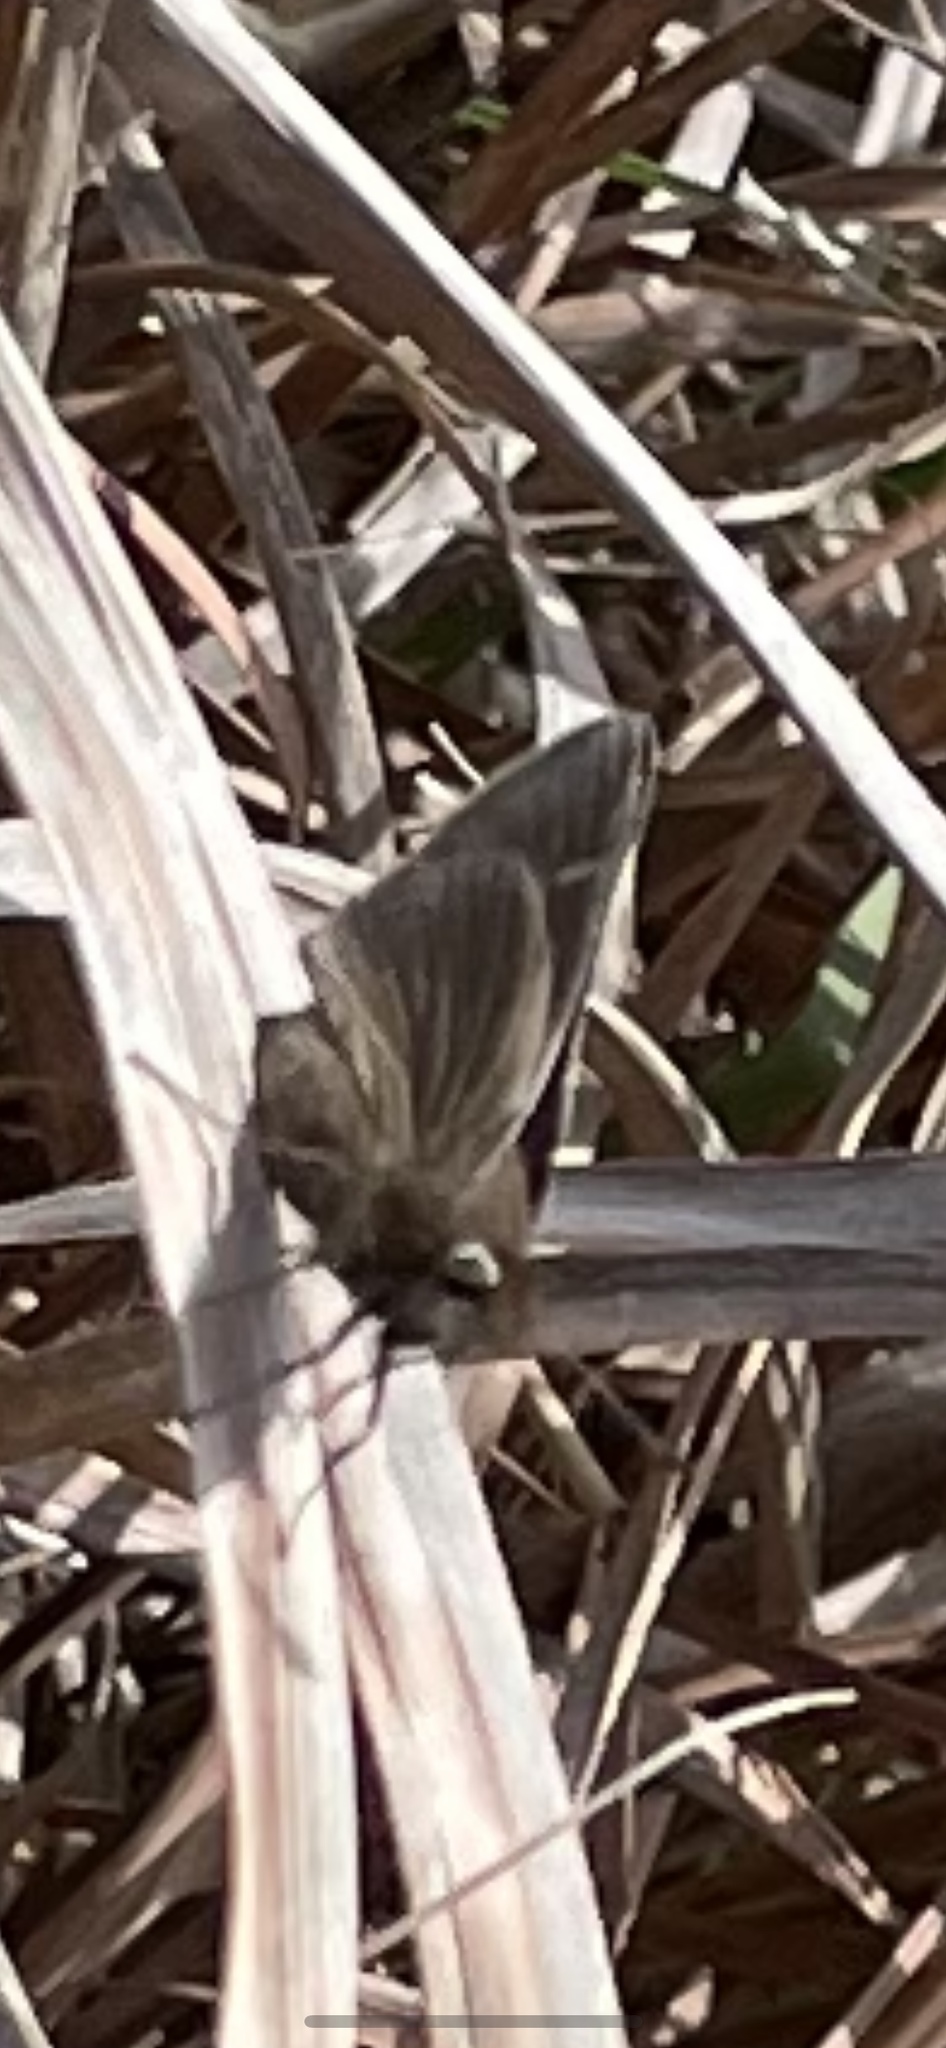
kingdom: Animalia
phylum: Arthropoda
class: Insecta
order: Lepidoptera
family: Hesperiidae
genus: Atrytonopsis
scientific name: Atrytonopsis hianna
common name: Dusted skipper
